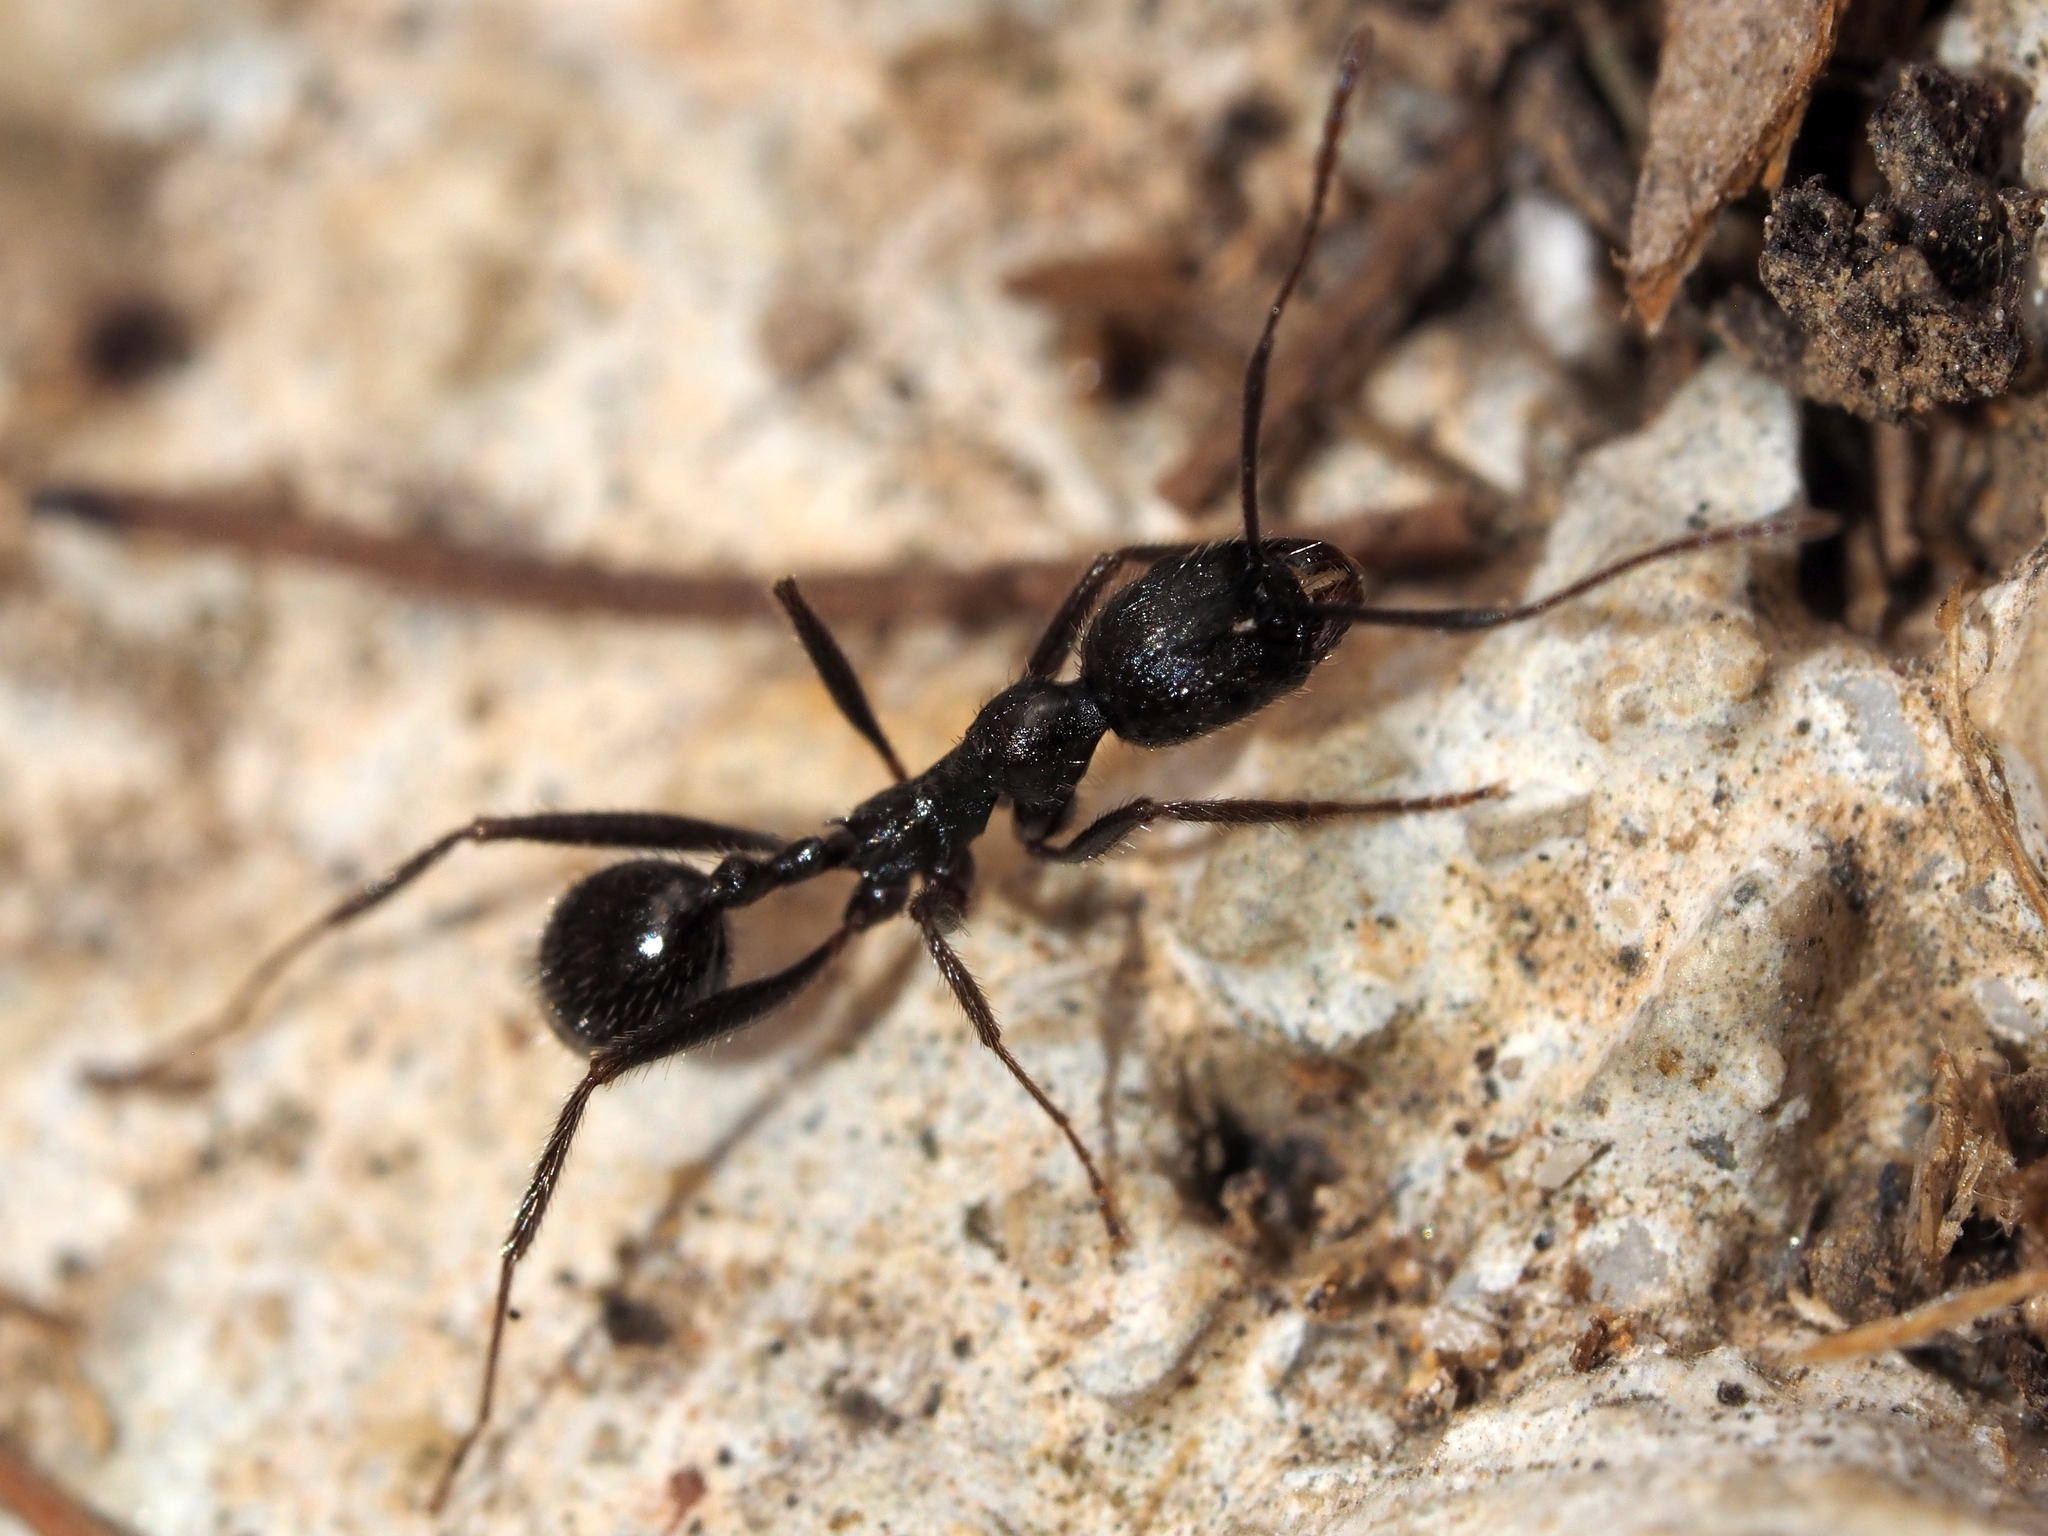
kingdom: Animalia
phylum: Arthropoda
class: Insecta
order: Hymenoptera
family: Formicidae
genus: Aphaenogaster
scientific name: Aphaenogaster semipolita
